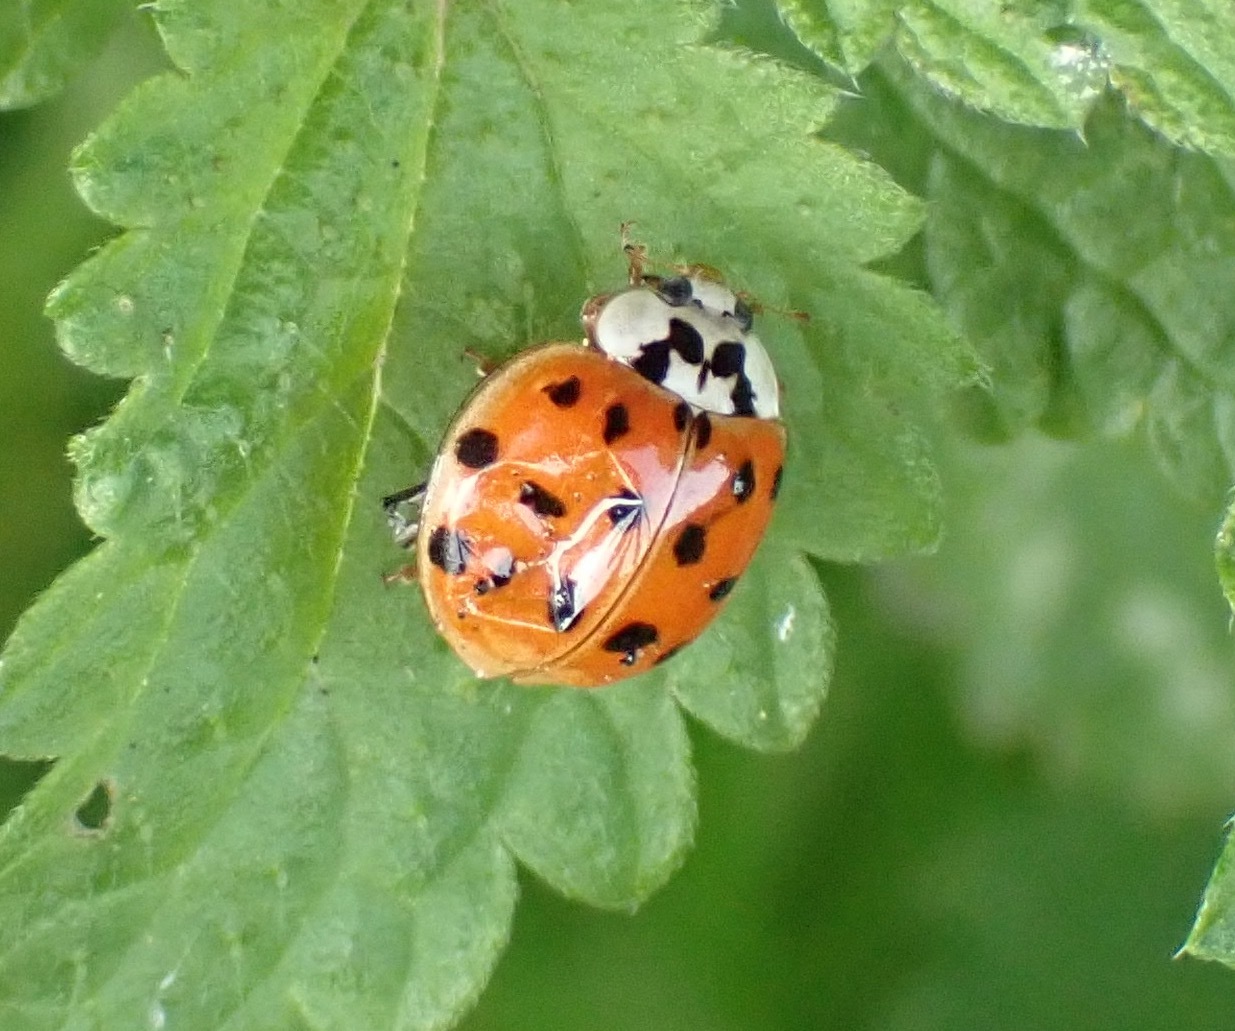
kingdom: Animalia
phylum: Arthropoda
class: Insecta
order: Coleoptera
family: Coccinellidae
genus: Harmonia
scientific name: Harmonia axyridis
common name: Harlequin ladybird
